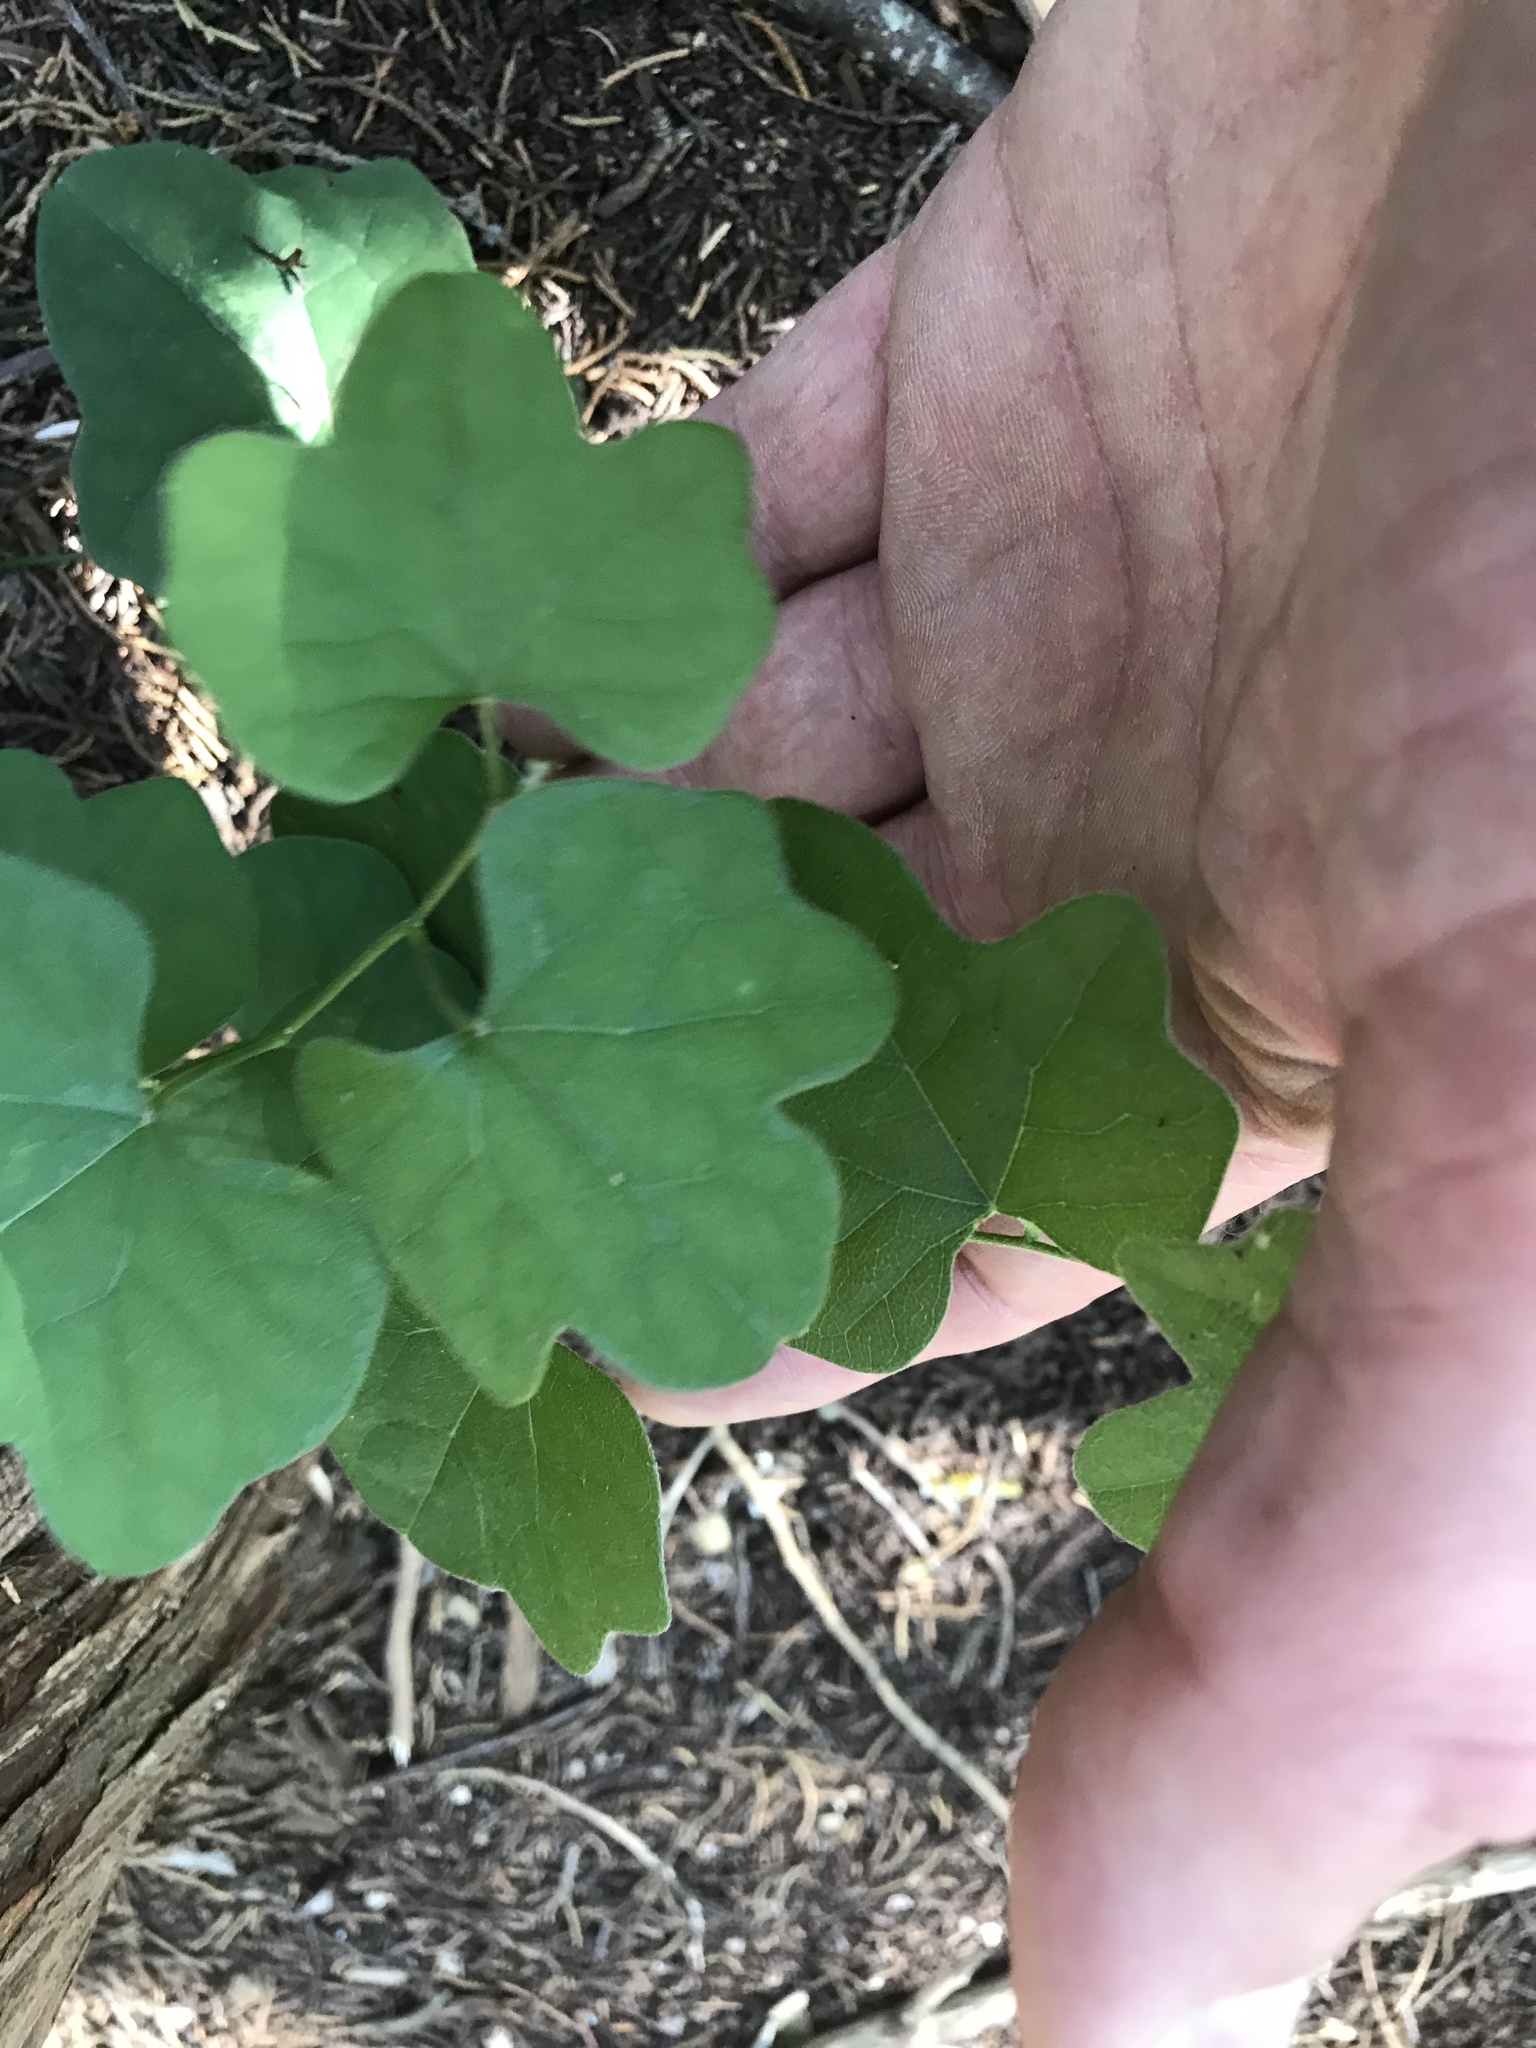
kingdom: Plantae
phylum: Tracheophyta
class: Magnoliopsida
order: Ranunculales
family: Menispermaceae
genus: Cocculus
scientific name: Cocculus carolinus
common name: Carolina moonseed
